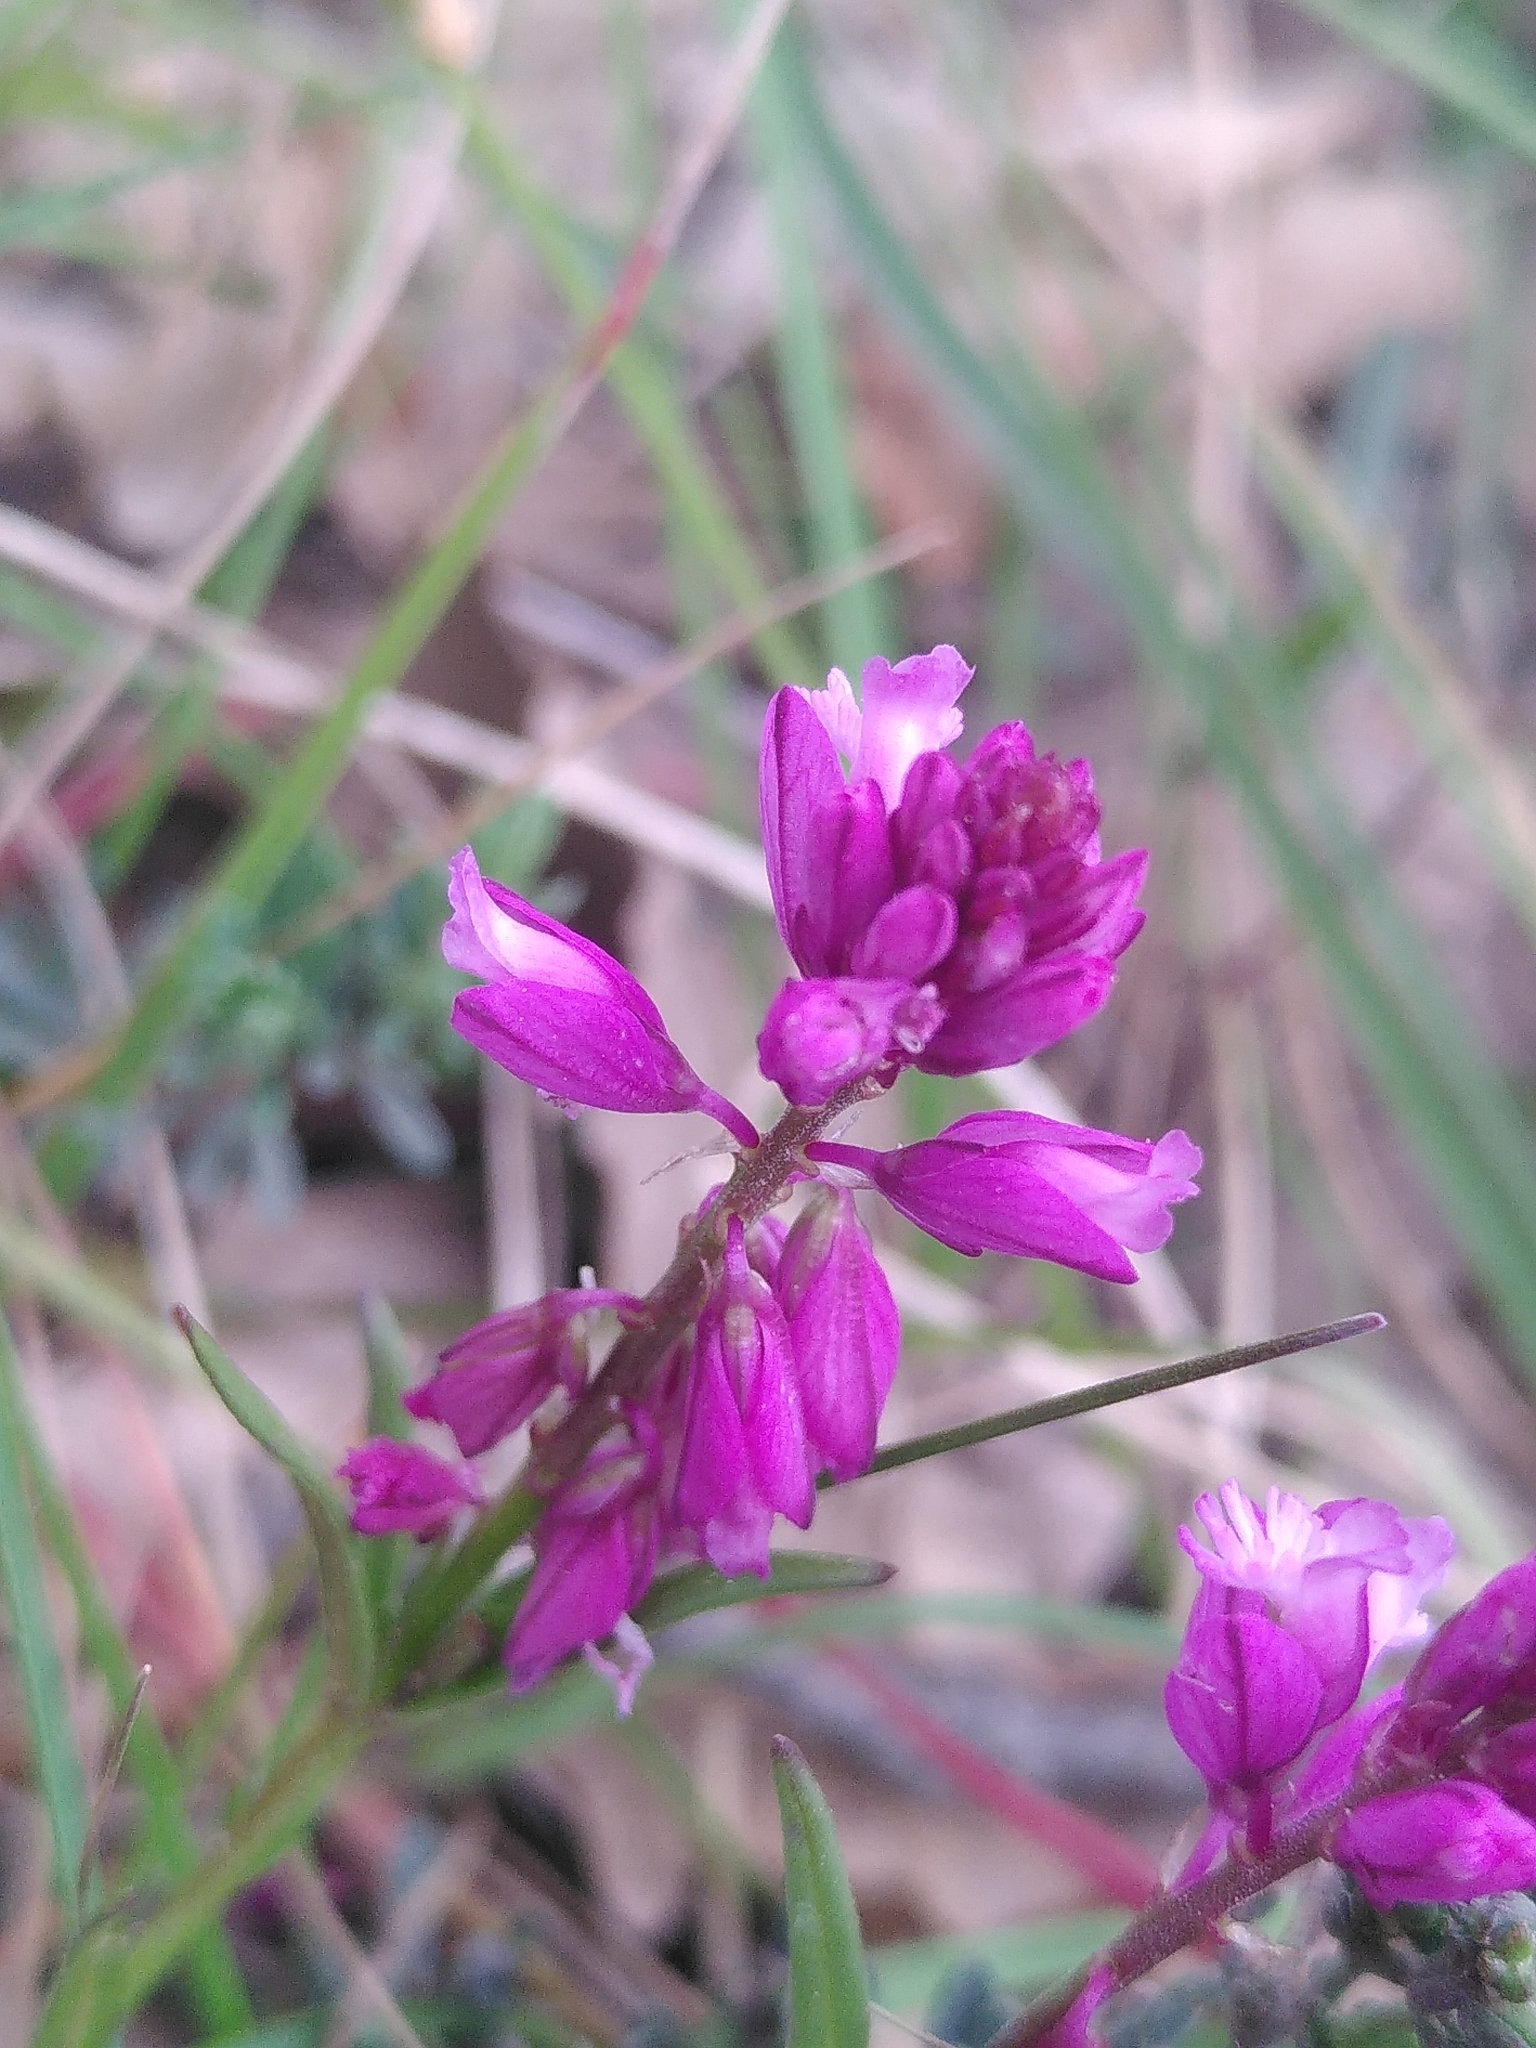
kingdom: Plantae
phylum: Tracheophyta
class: Magnoliopsida
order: Fabales
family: Polygalaceae
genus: Polygala
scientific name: Polygala vulgaris
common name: Common milkwort
